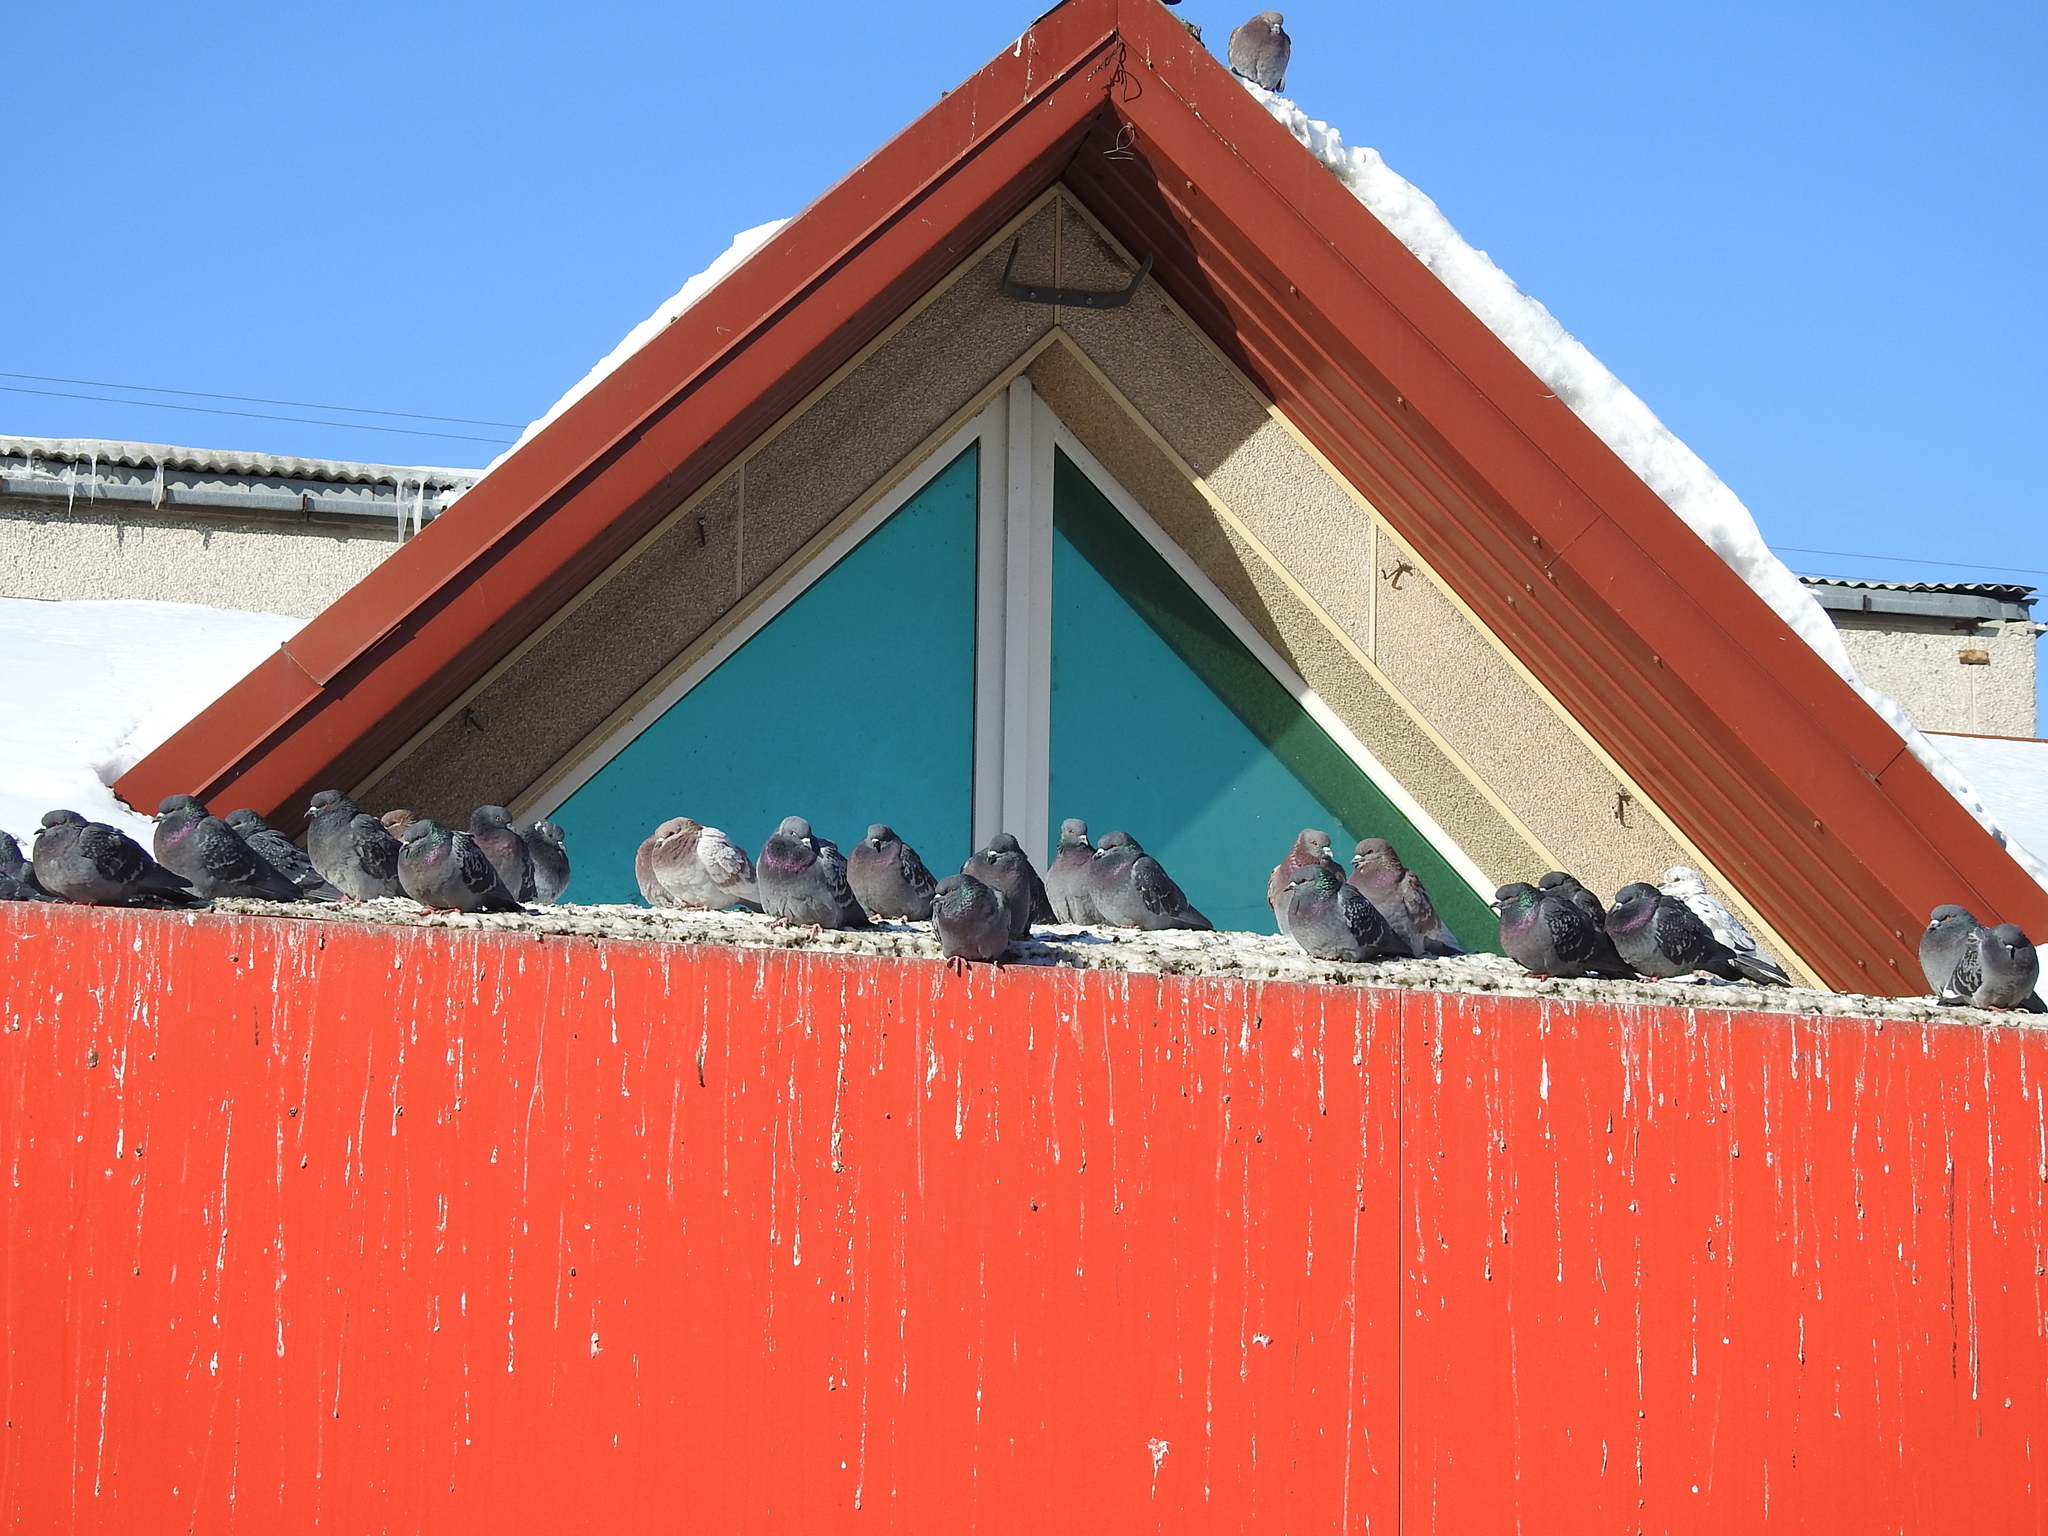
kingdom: Animalia
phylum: Chordata
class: Aves
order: Columbiformes
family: Columbidae
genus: Columba
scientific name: Columba livia
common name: Rock pigeon
